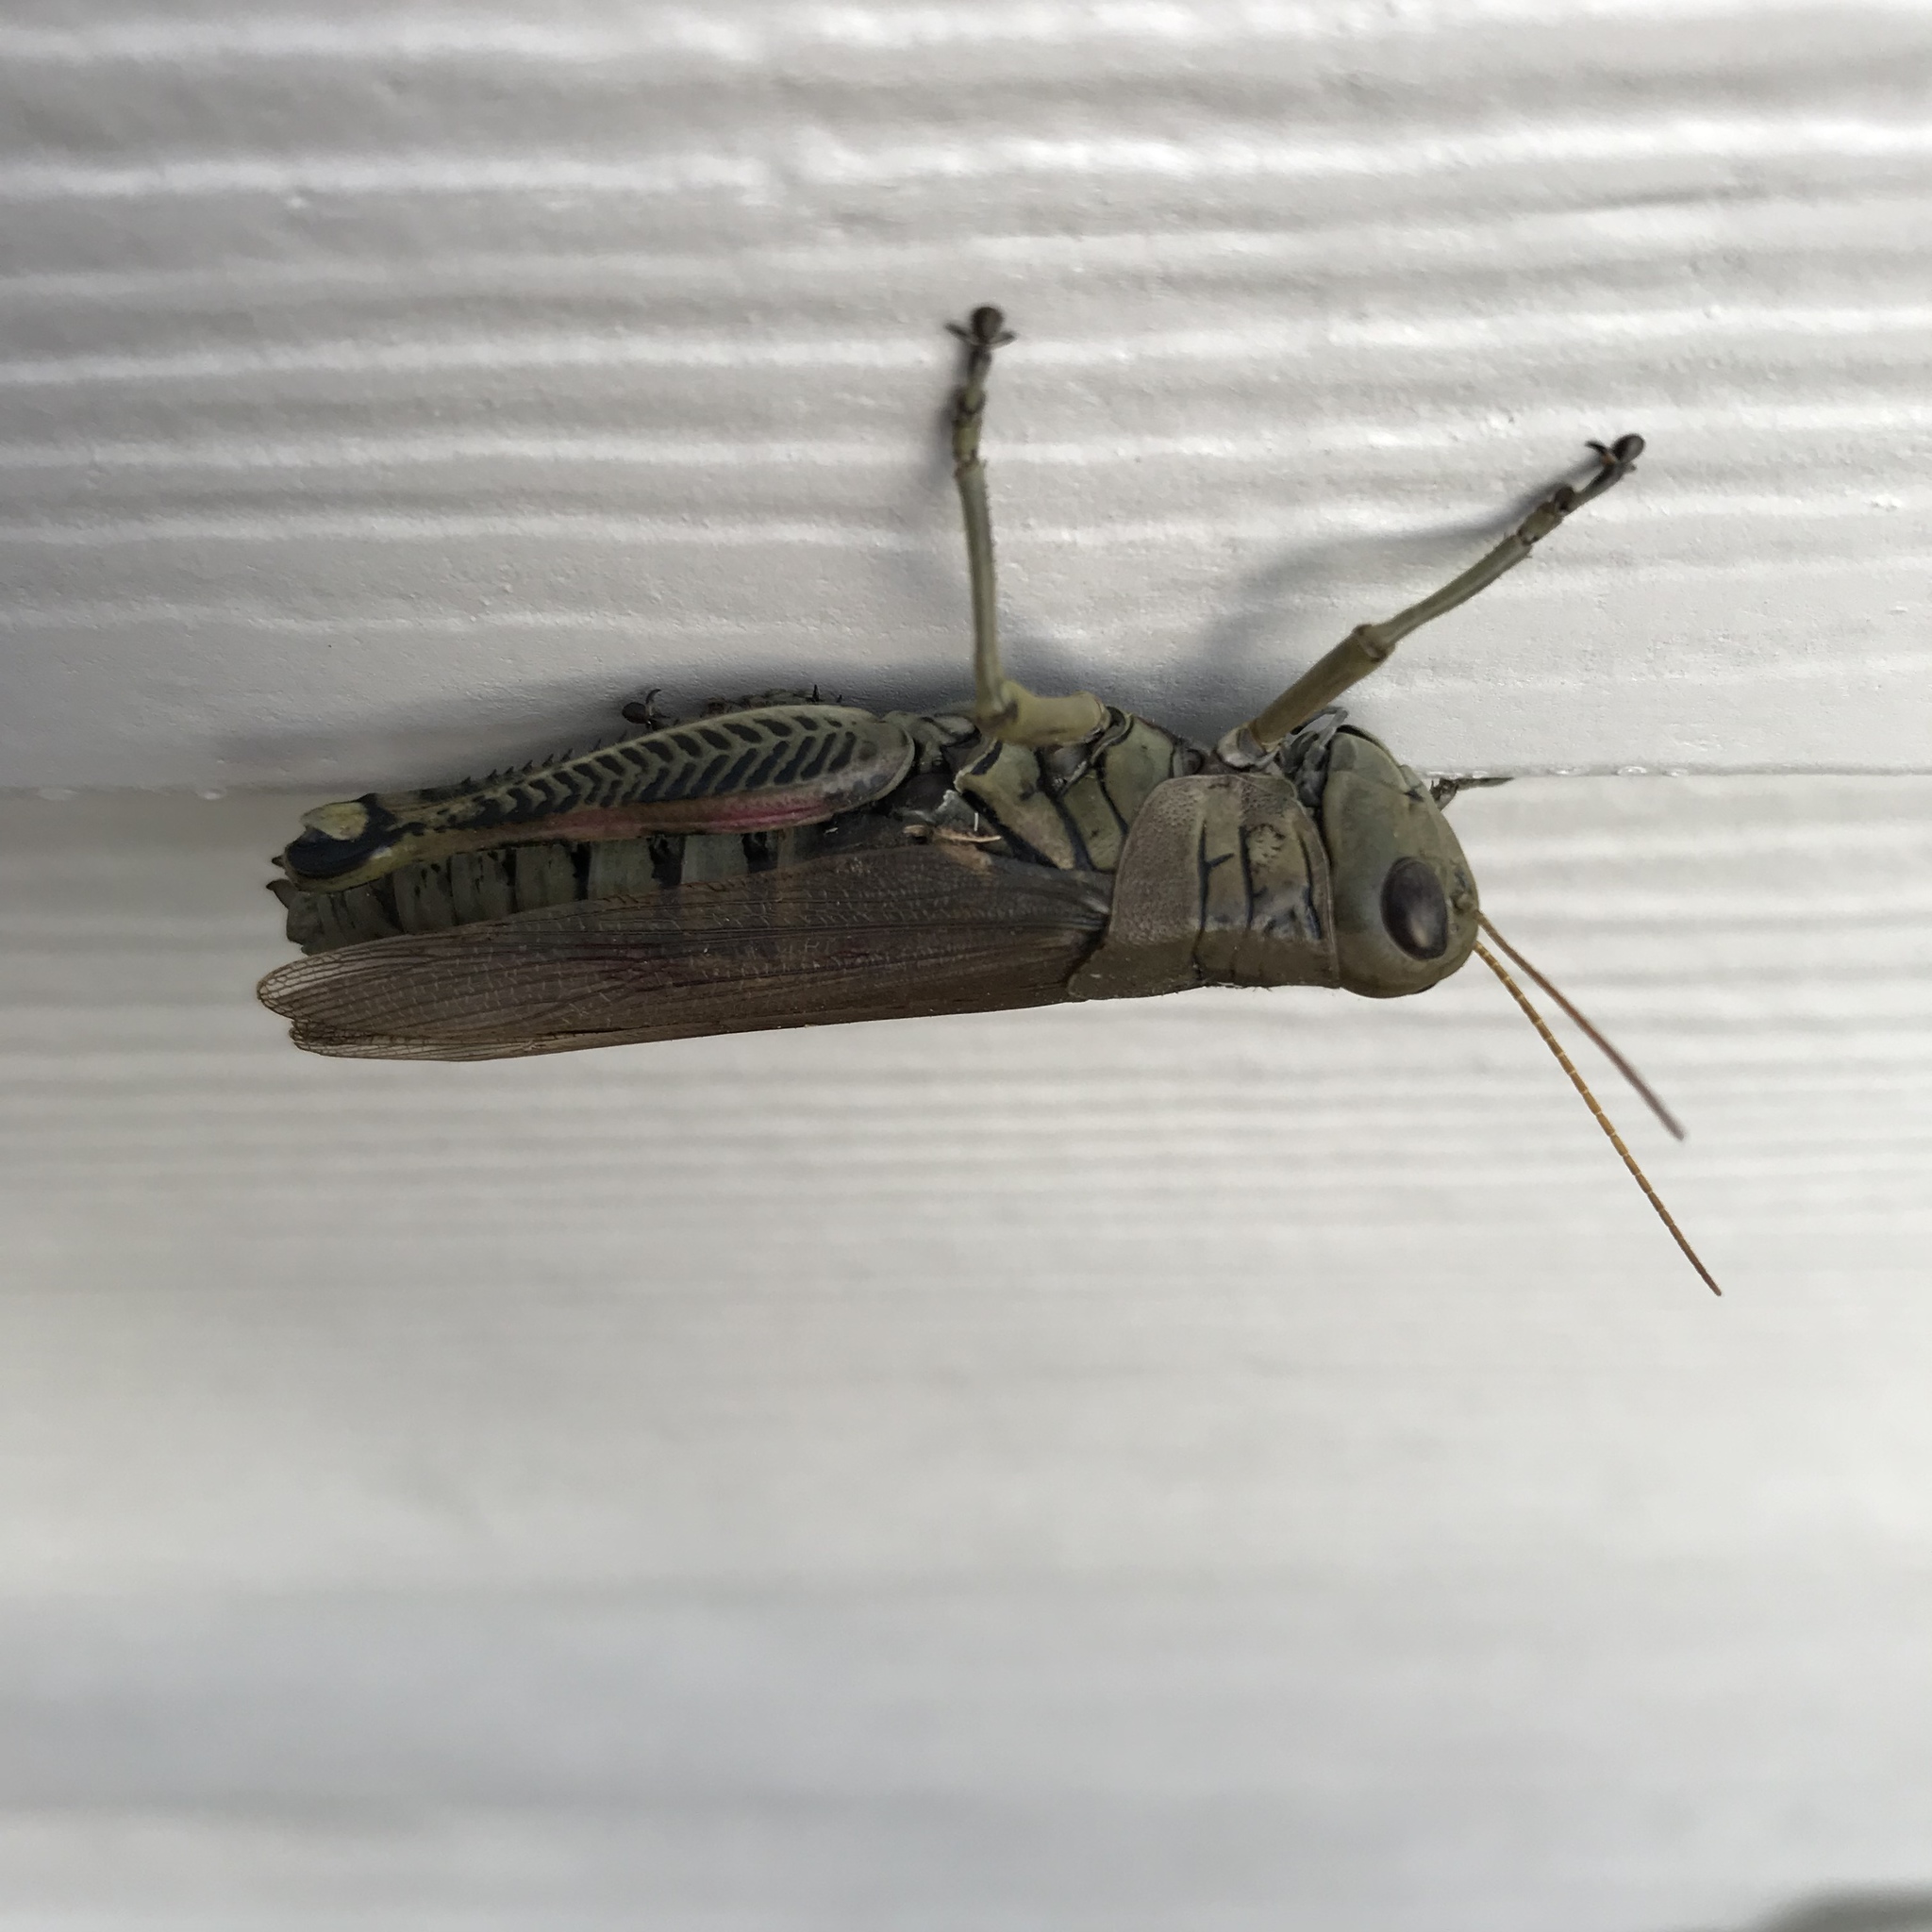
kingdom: Animalia
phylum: Arthropoda
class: Insecta
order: Orthoptera
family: Acrididae
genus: Melanoplus
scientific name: Melanoplus differentialis
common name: Differential grasshopper
